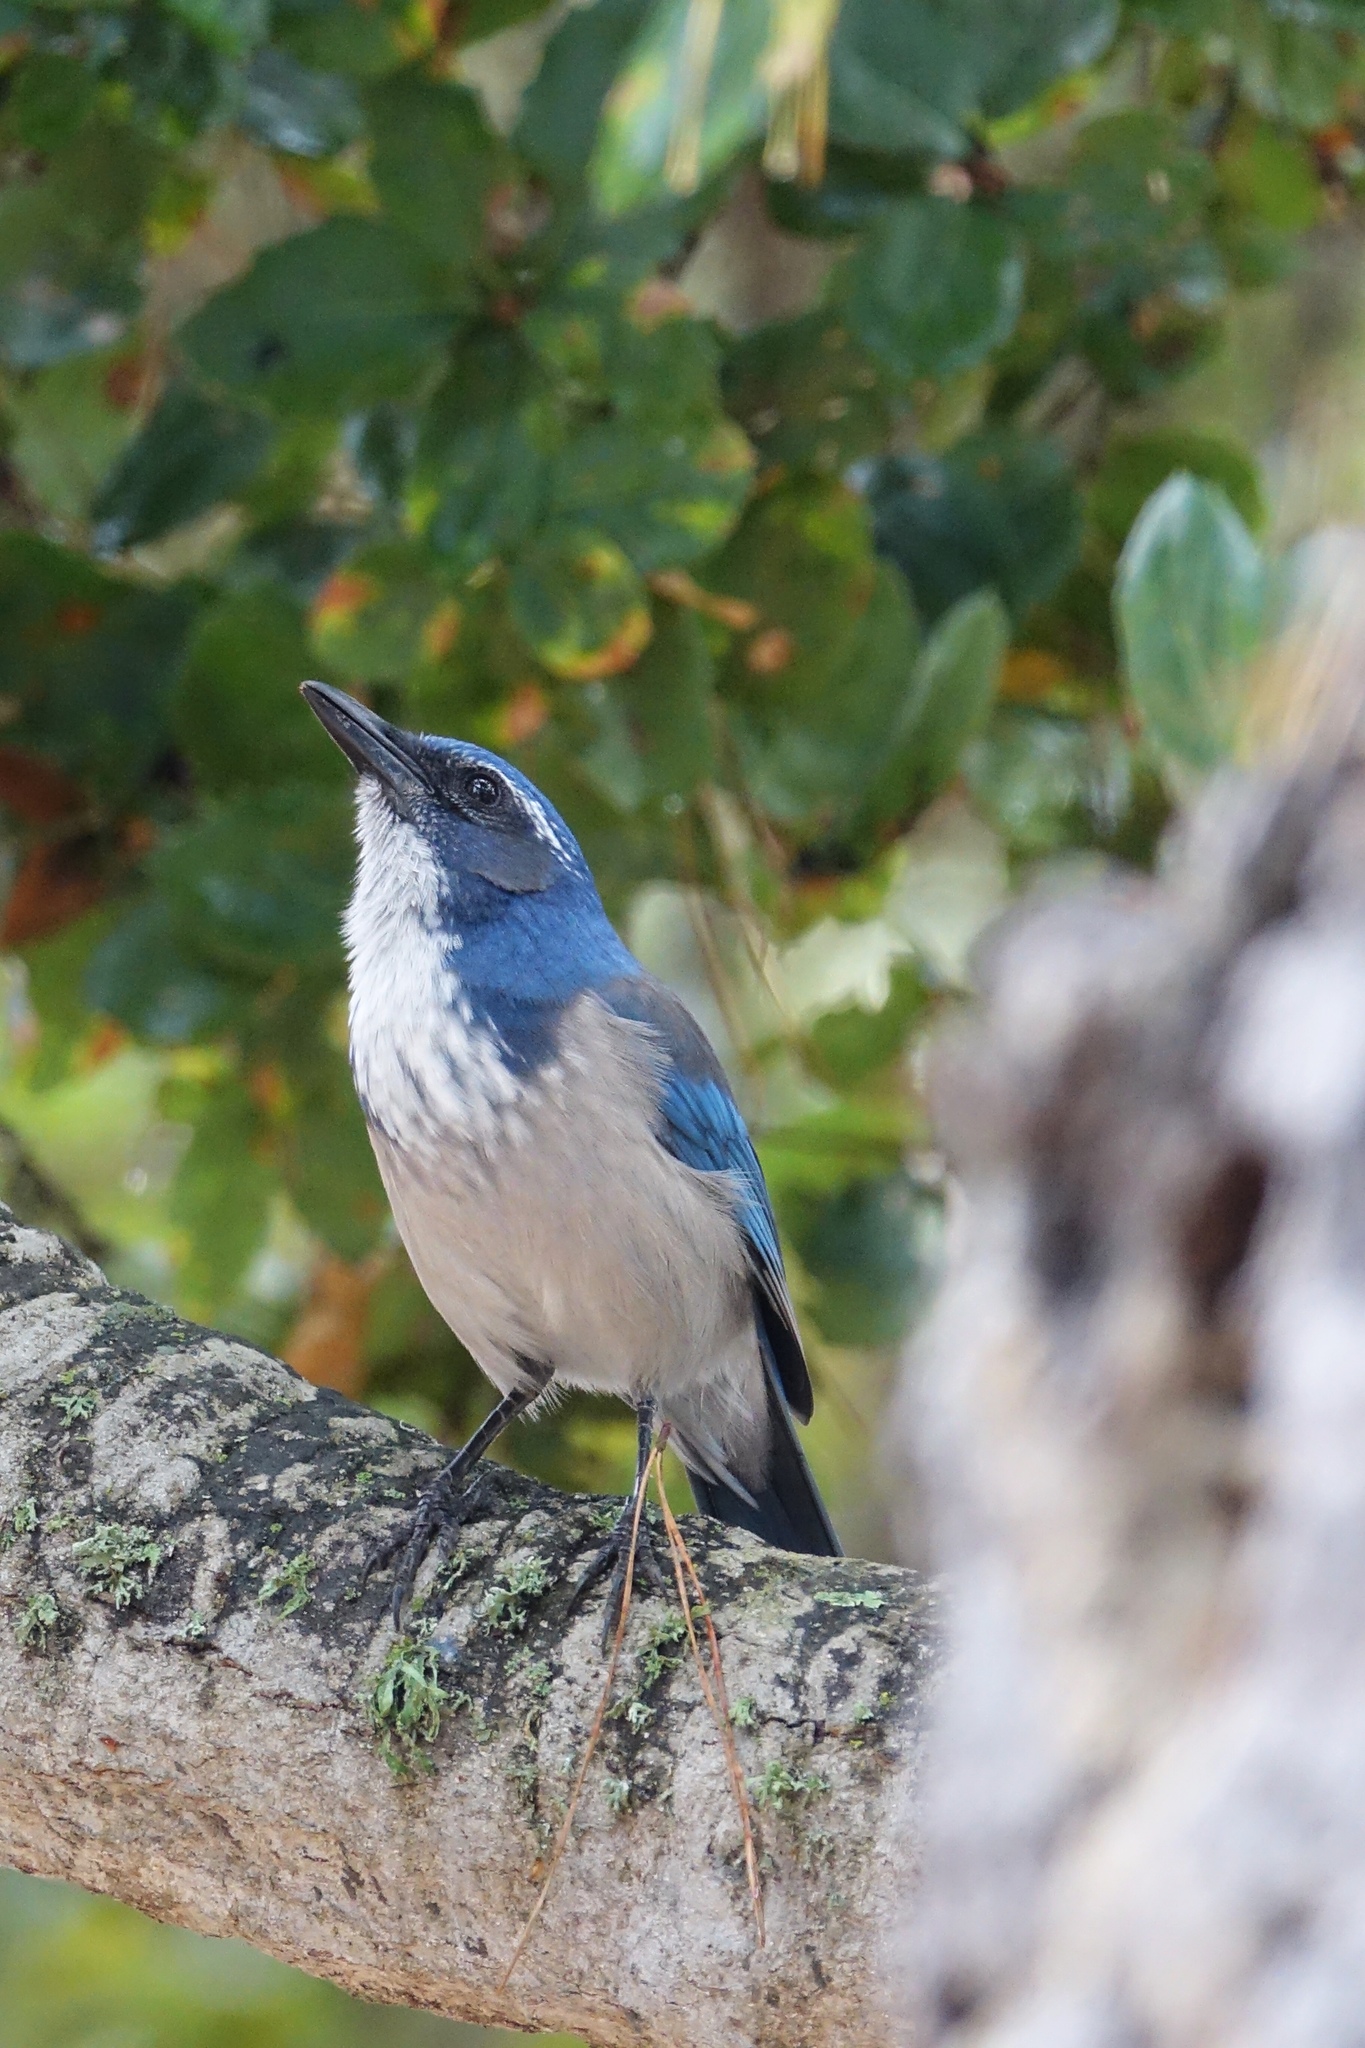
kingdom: Animalia
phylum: Chordata
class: Aves
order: Passeriformes
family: Corvidae
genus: Aphelocoma
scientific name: Aphelocoma californica
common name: California scrub-jay
